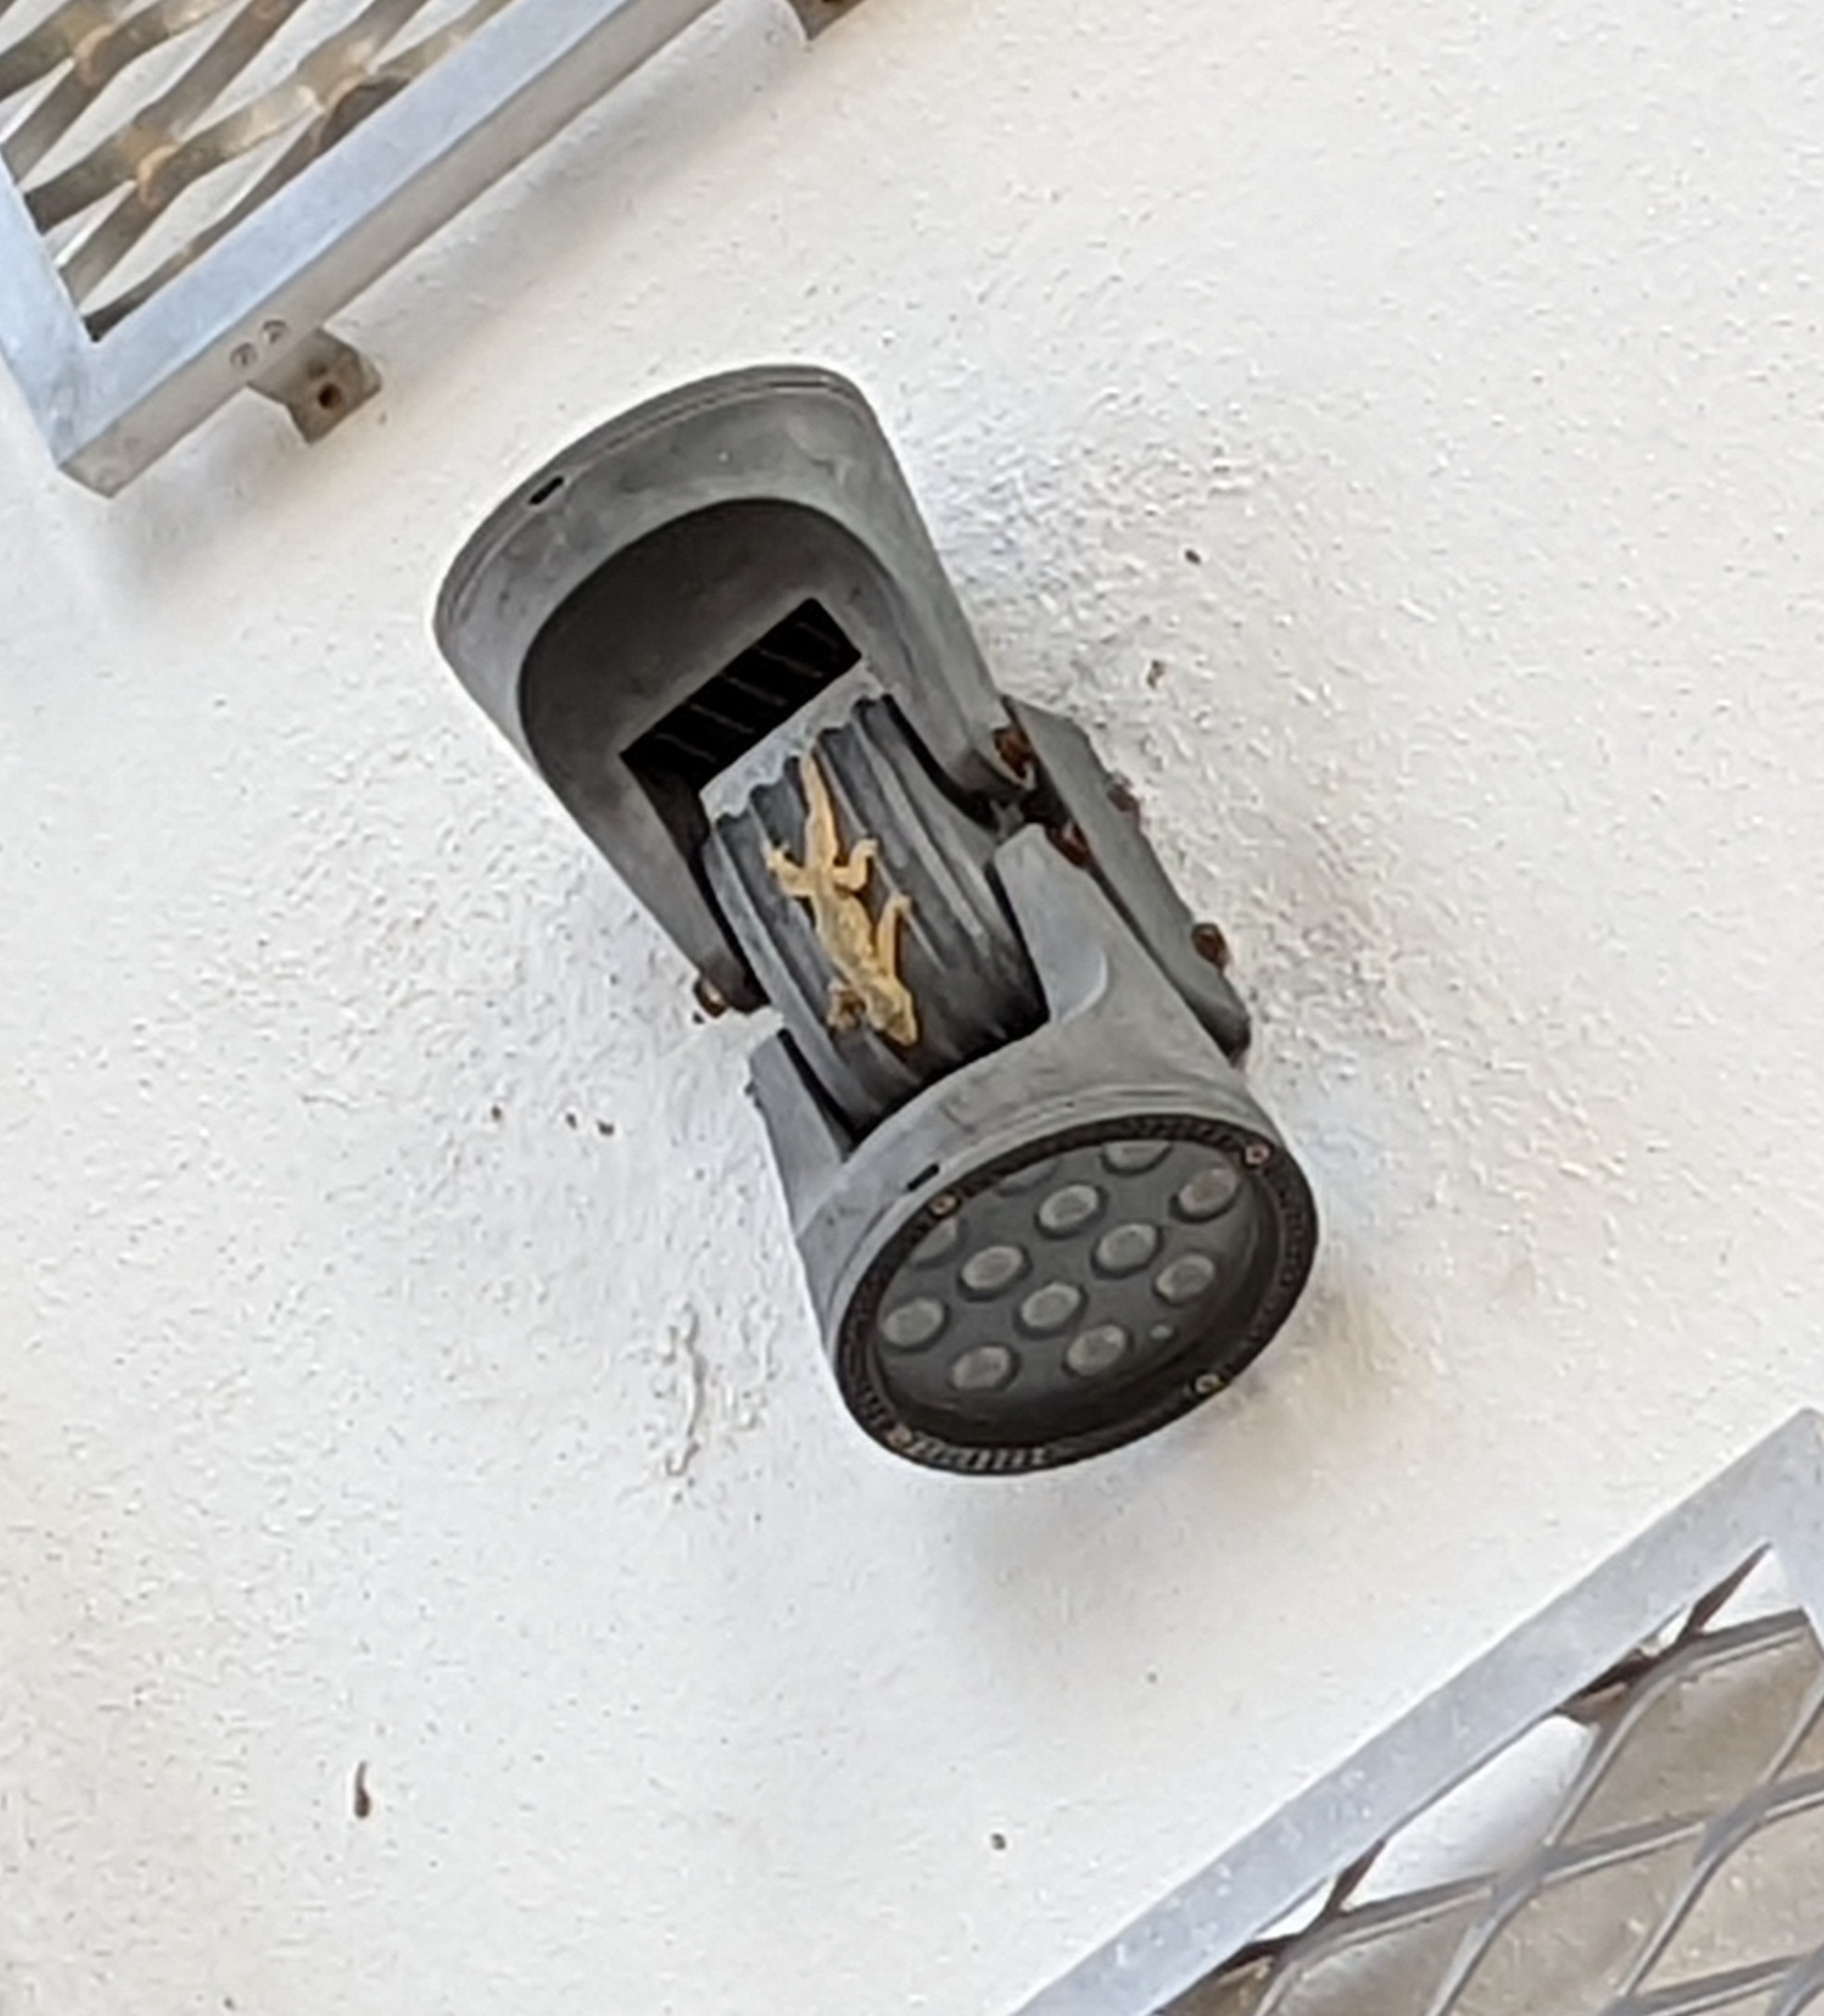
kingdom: Animalia
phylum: Chordata
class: Squamata
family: Gekkonidae
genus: Hemidactylus
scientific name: Hemidactylus platyurus
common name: Flat-tailed house gecko
